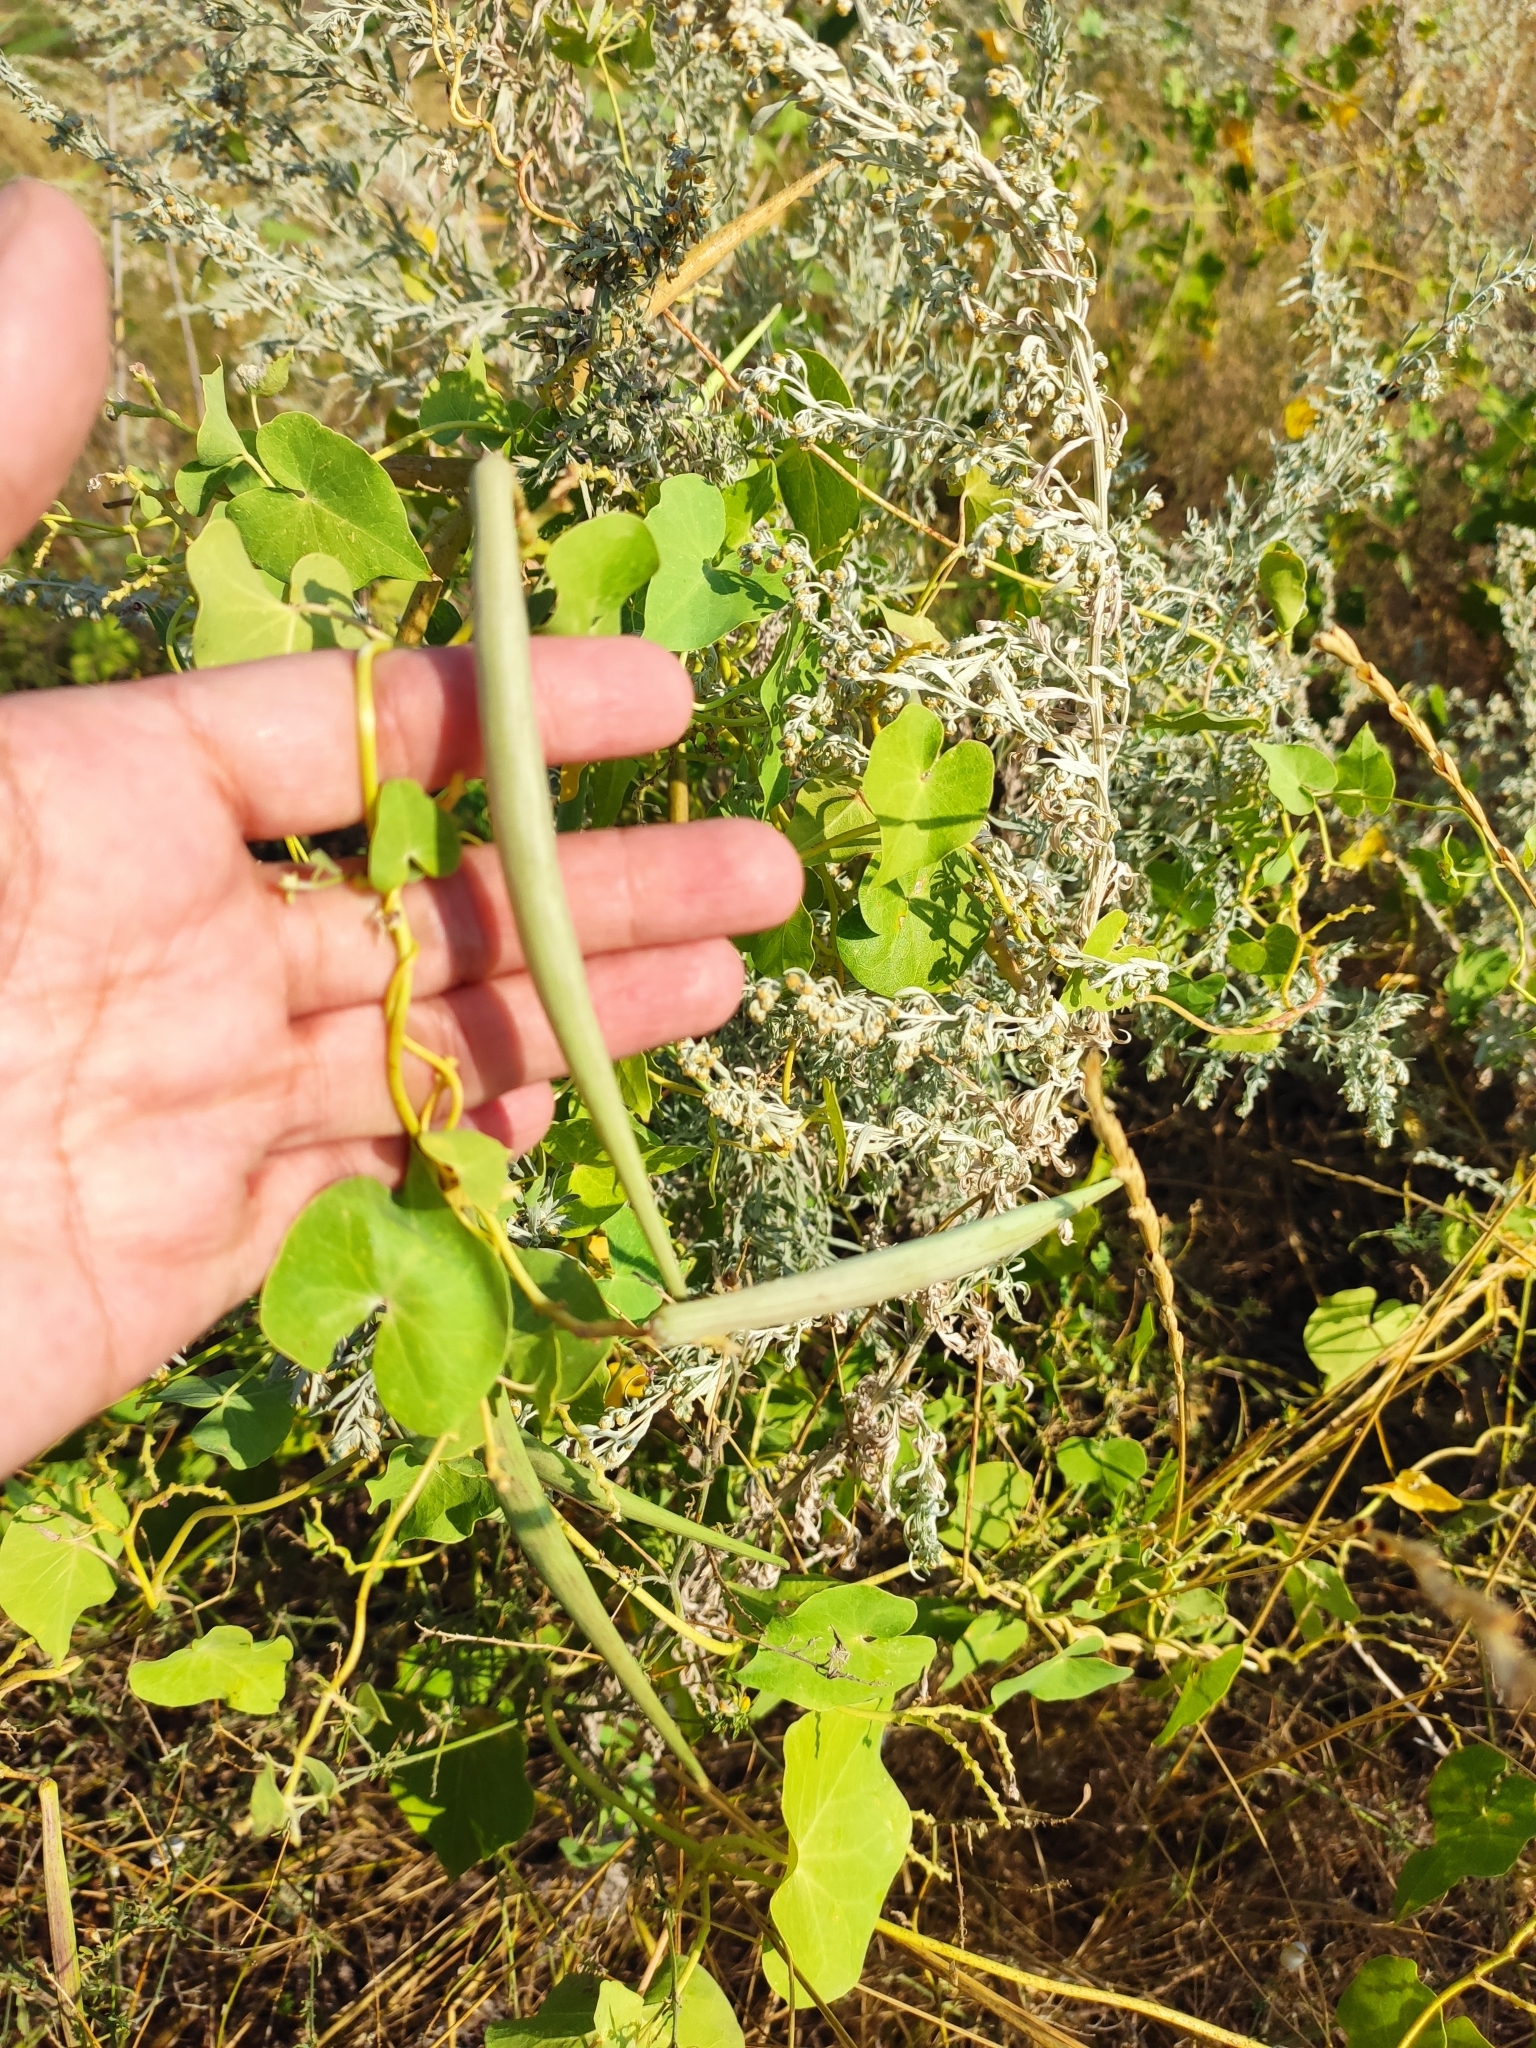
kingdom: Plantae
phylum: Tracheophyta
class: Magnoliopsida
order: Gentianales
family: Apocynaceae
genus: Cynanchum
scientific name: Cynanchum acutum
